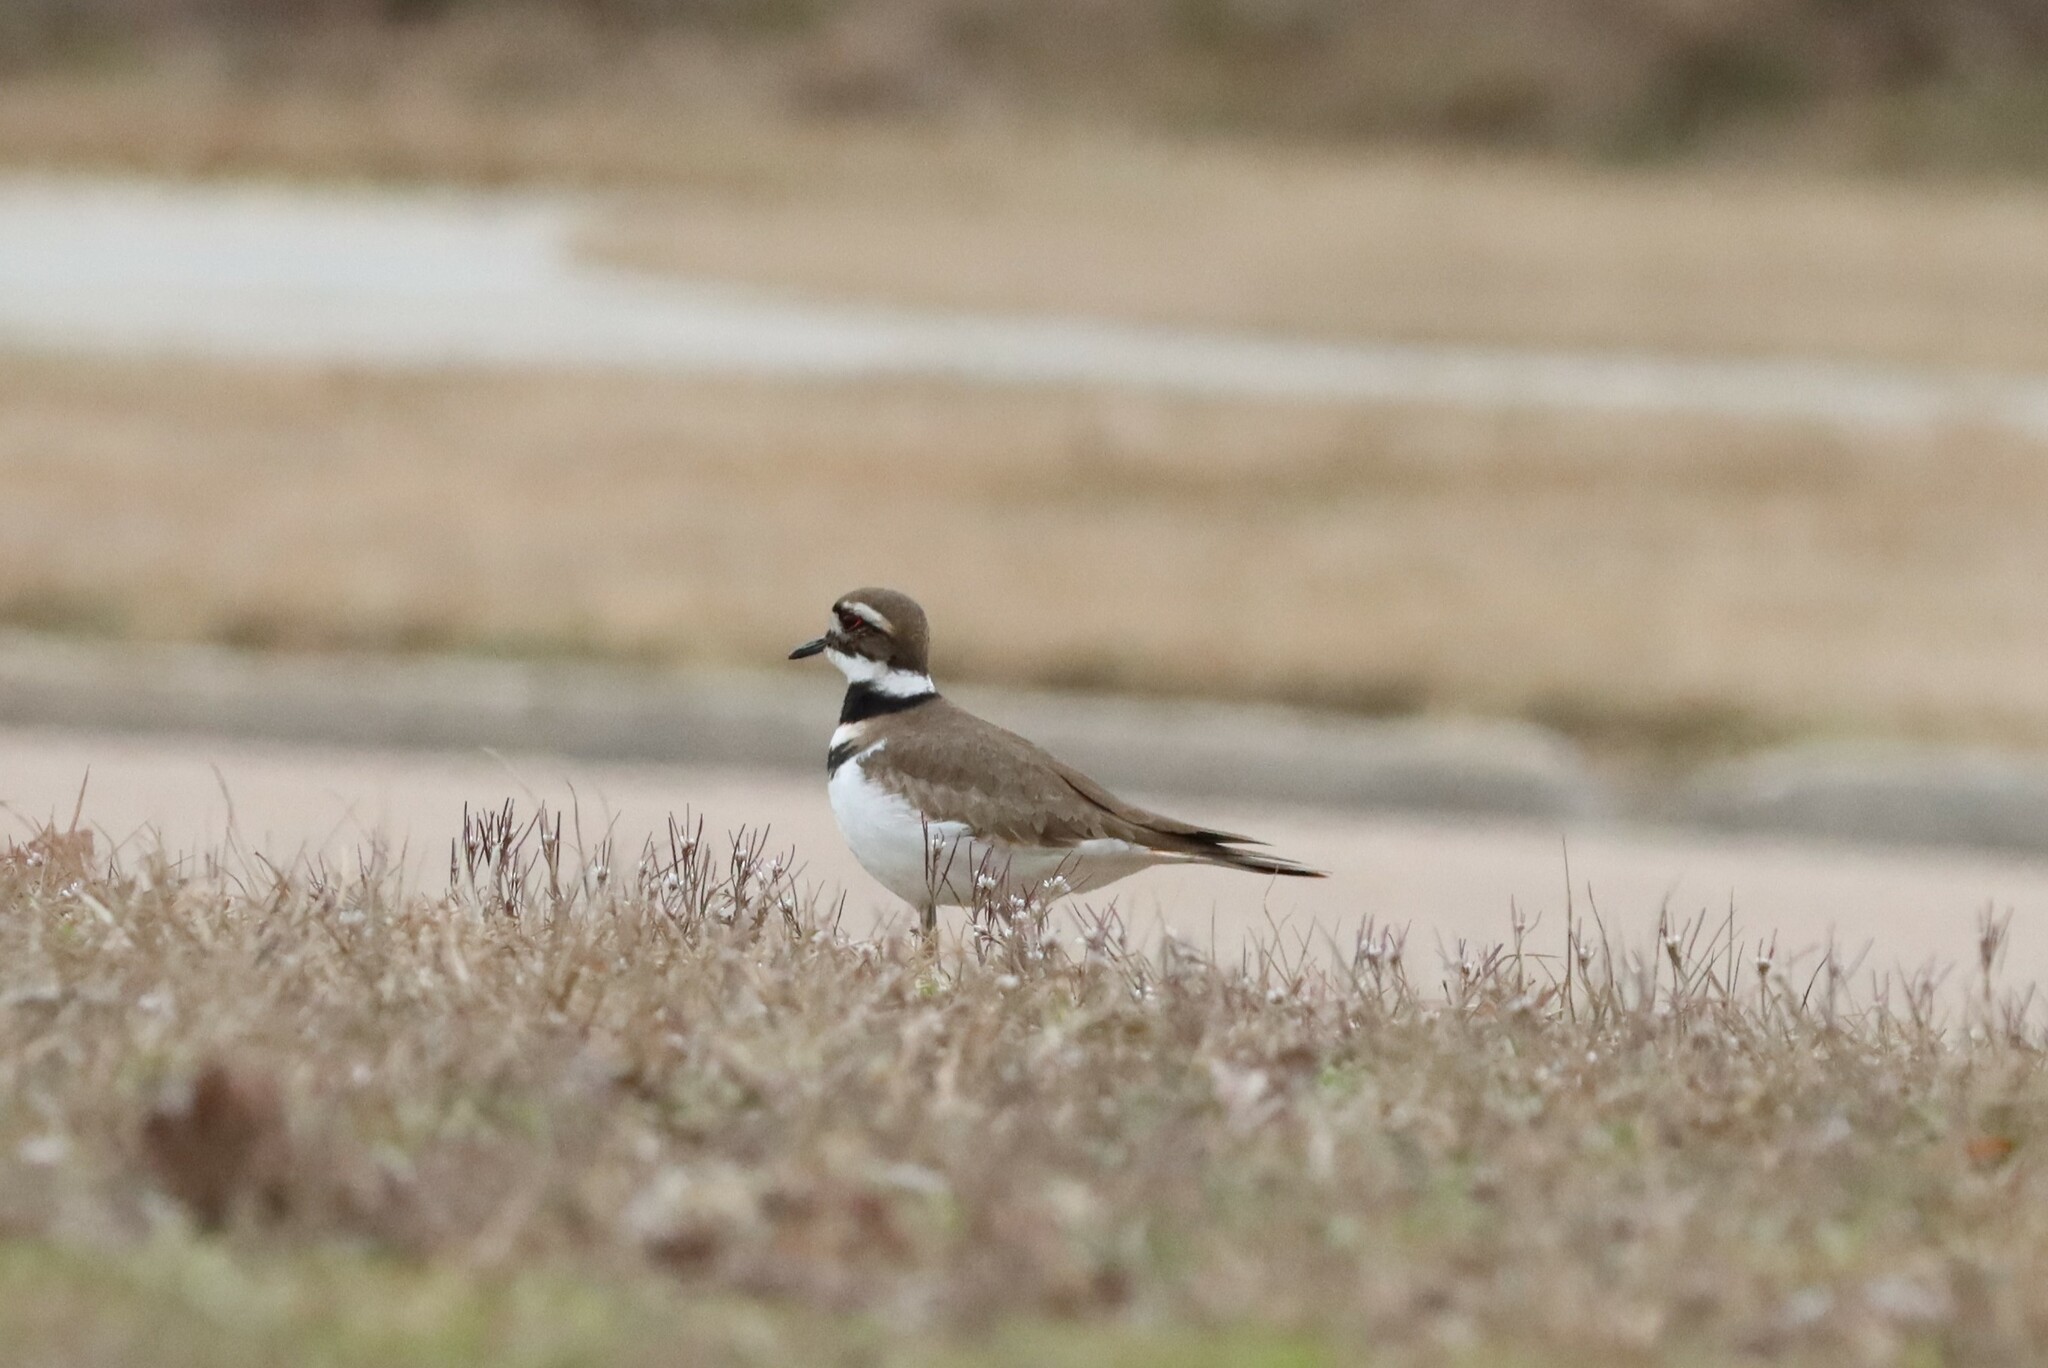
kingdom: Animalia
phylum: Chordata
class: Aves
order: Charadriiformes
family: Charadriidae
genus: Charadrius
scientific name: Charadrius vociferus
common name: Killdeer
